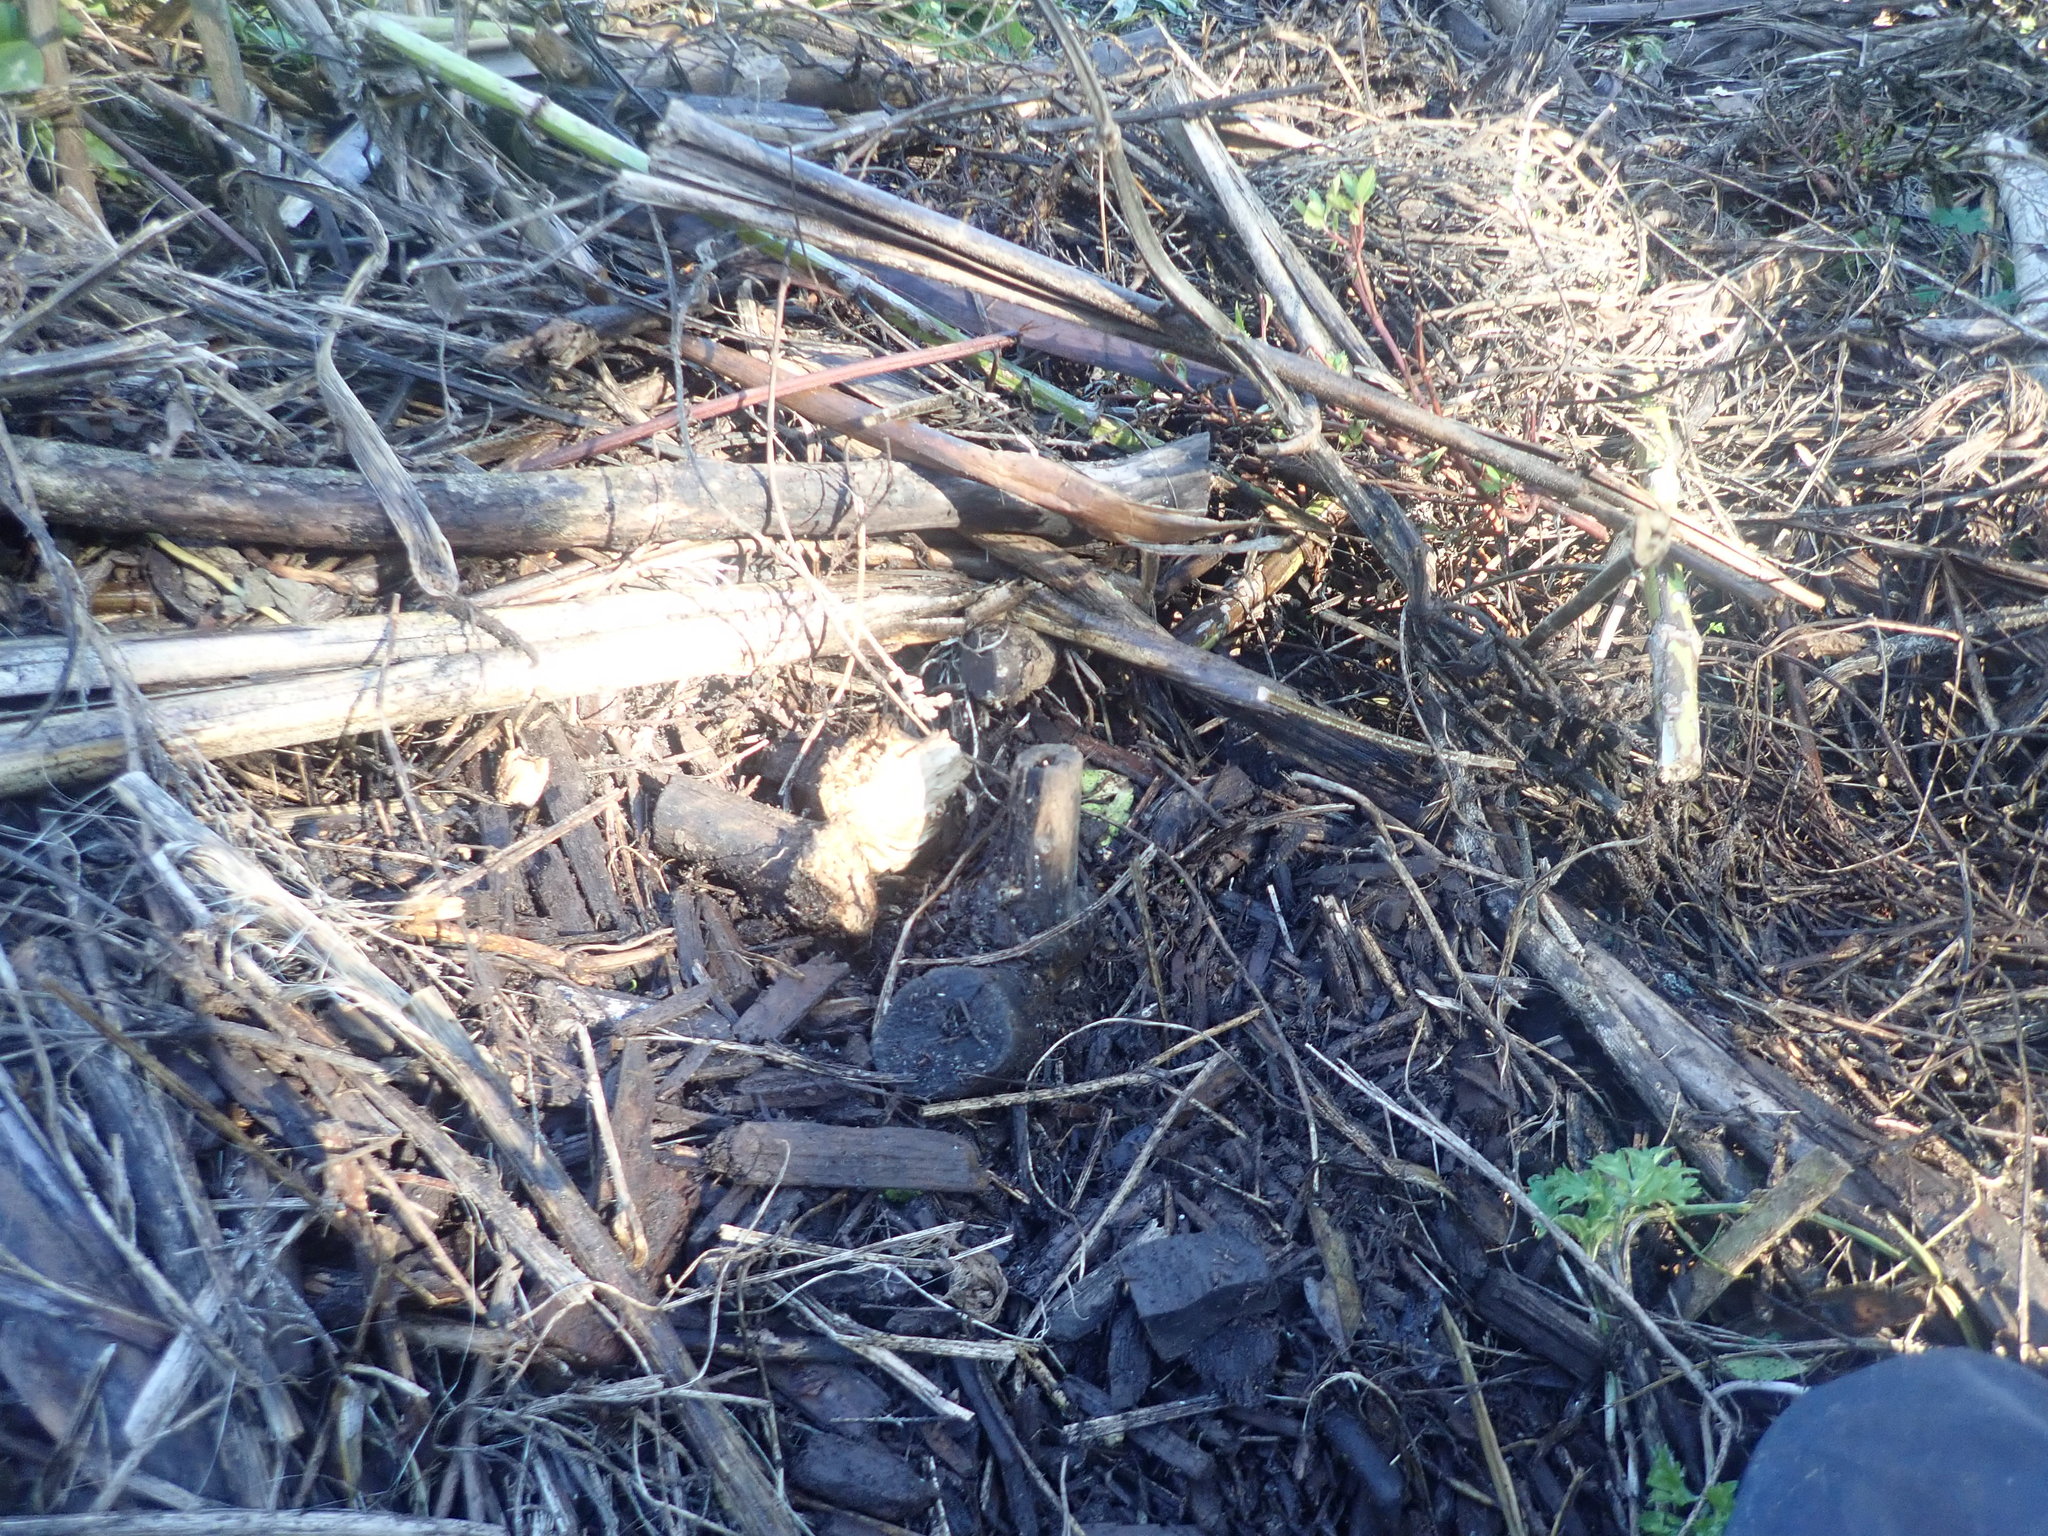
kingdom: Plantae
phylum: Tracheophyta
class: Magnoliopsida
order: Geraniales
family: Melianthaceae
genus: Melianthus
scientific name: Melianthus major
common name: Honey-flower
